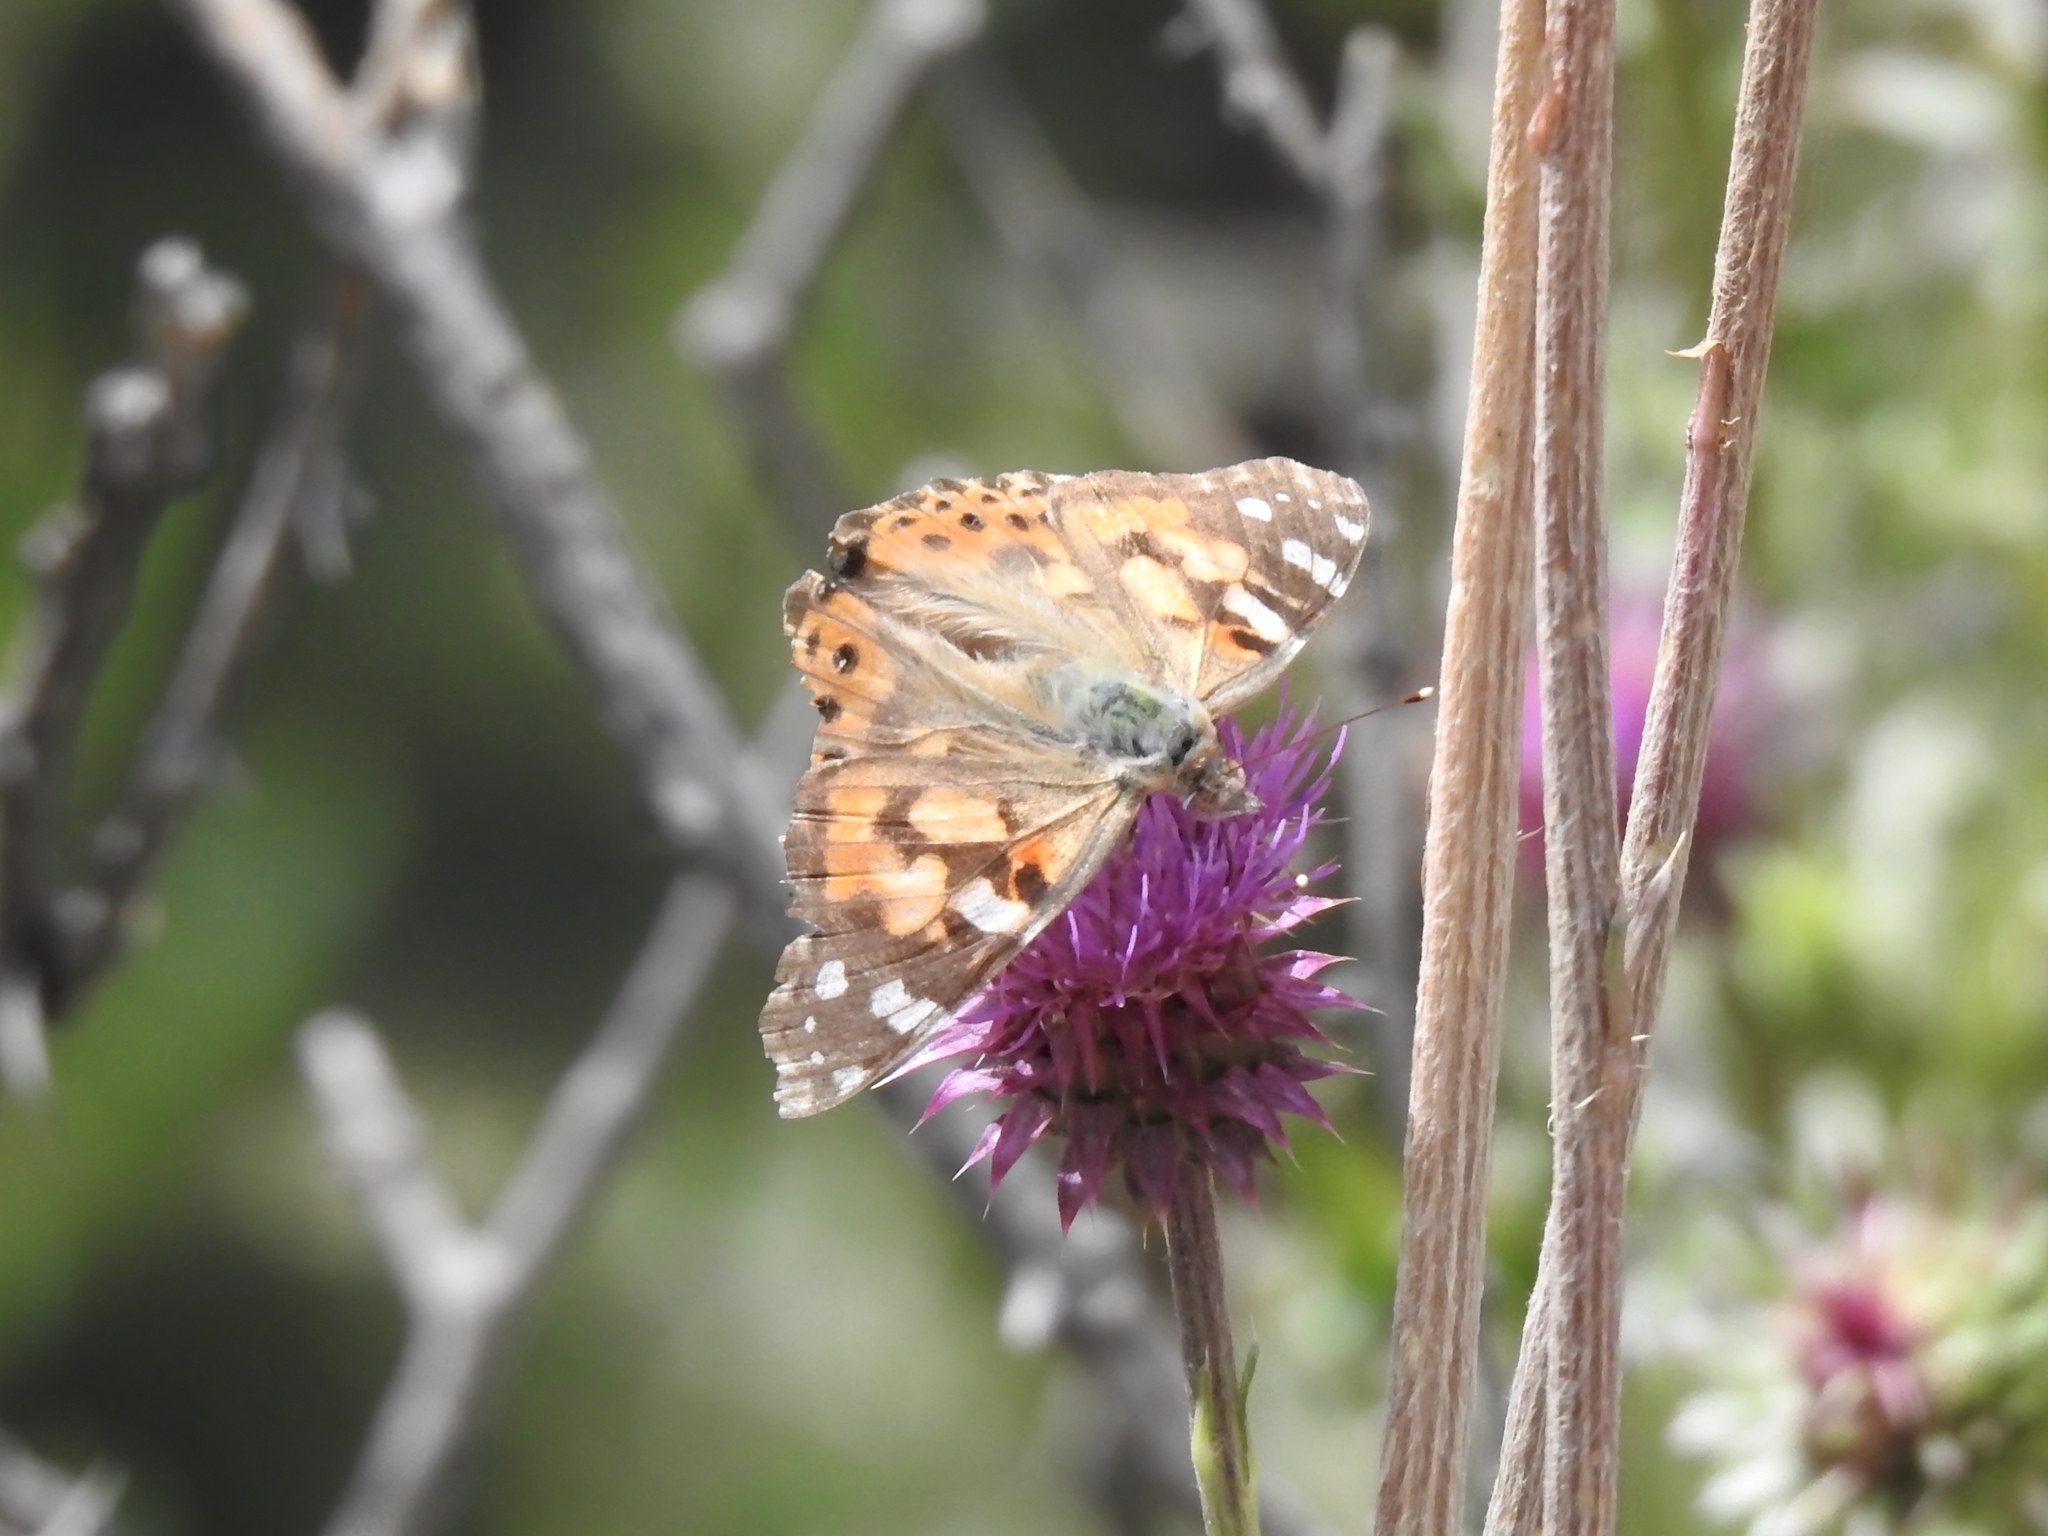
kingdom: Animalia
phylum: Arthropoda
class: Insecta
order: Lepidoptera
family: Nymphalidae
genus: Vanessa
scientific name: Vanessa cardui
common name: Painted lady
